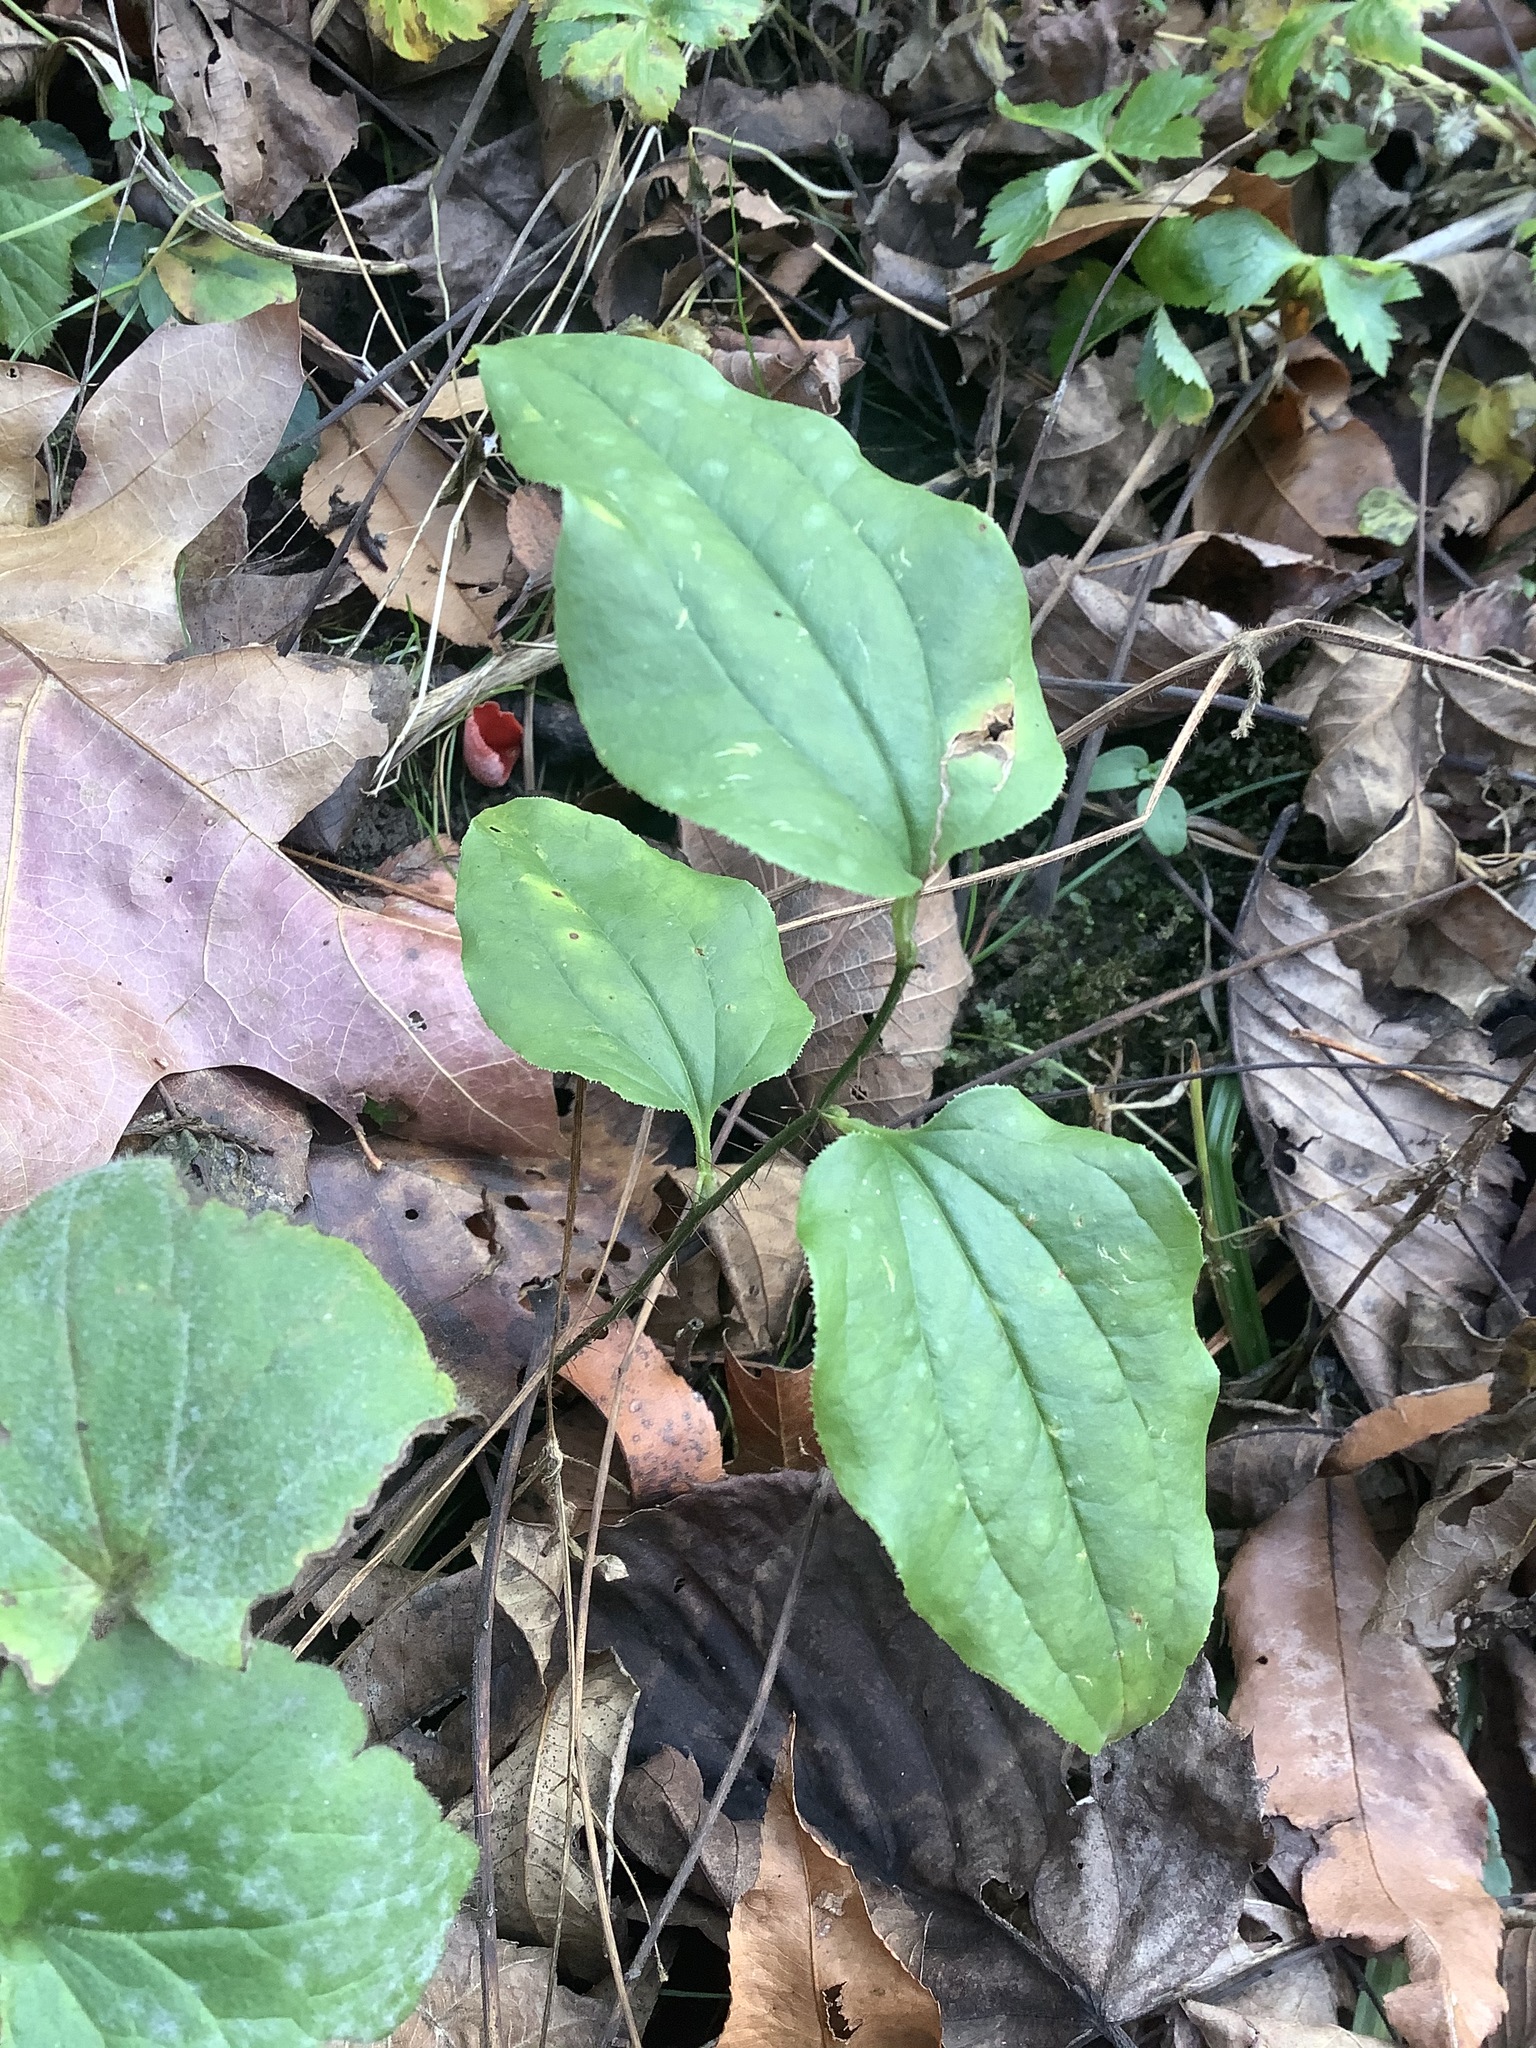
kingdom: Plantae
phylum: Tracheophyta
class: Liliopsida
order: Liliales
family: Smilacaceae
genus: Smilax
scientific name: Smilax tamnoides
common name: Hellfetter
